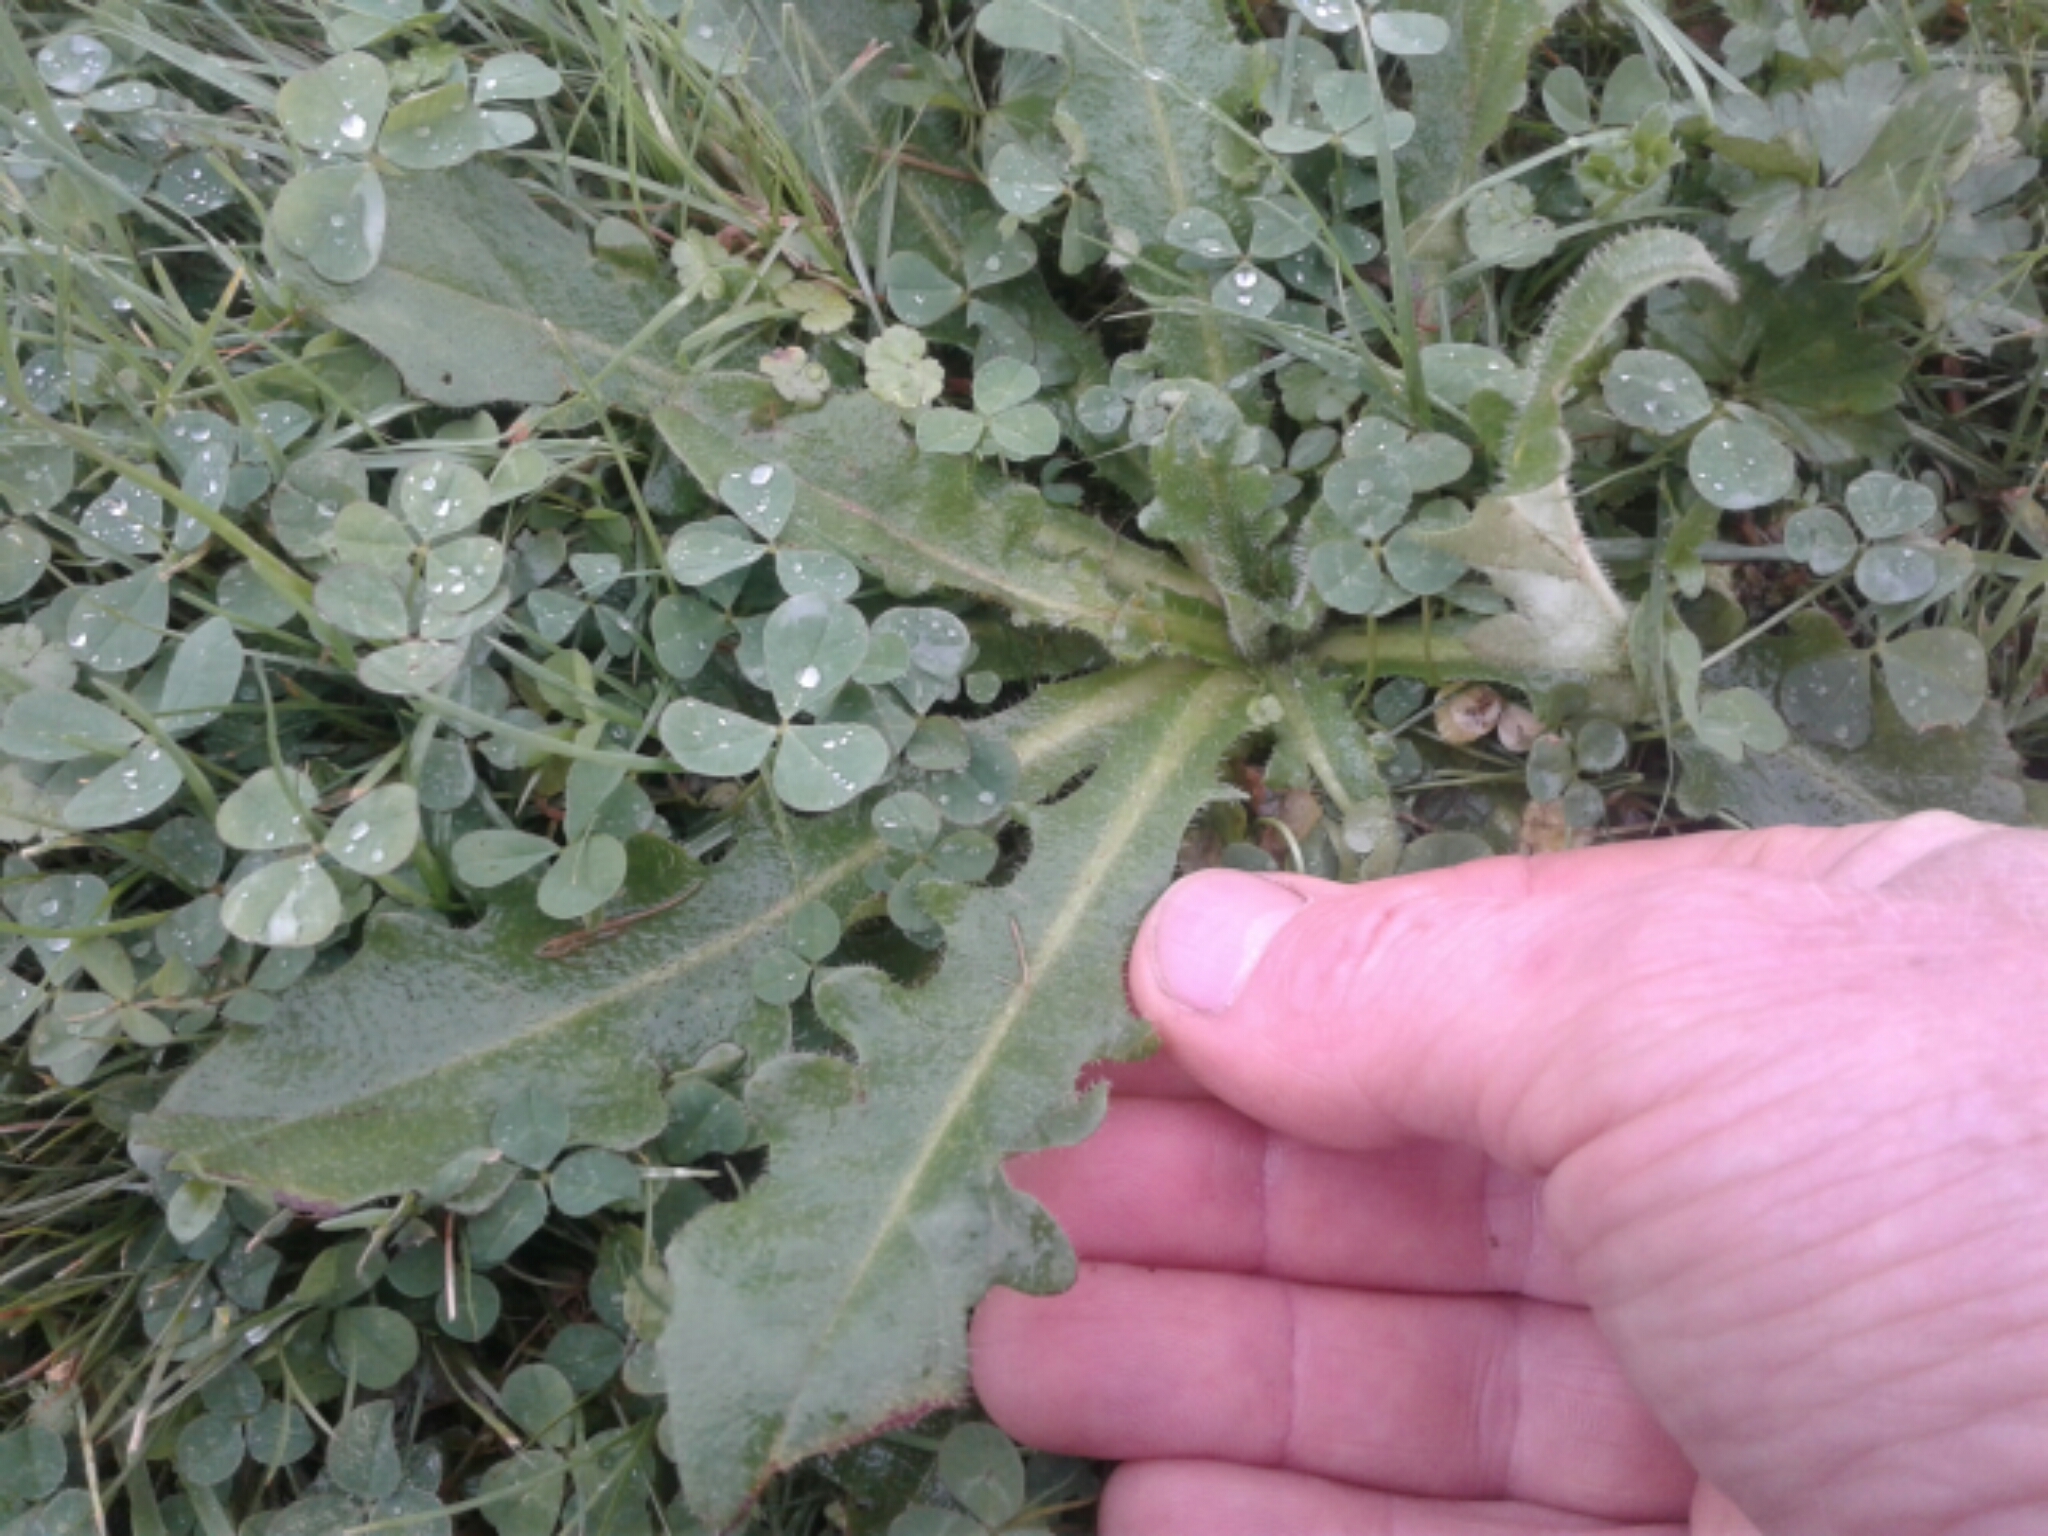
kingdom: Plantae
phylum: Tracheophyta
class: Magnoliopsida
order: Asterales
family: Asteraceae
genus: Hypochaeris
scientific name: Hypochaeris radicata
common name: Flatweed
